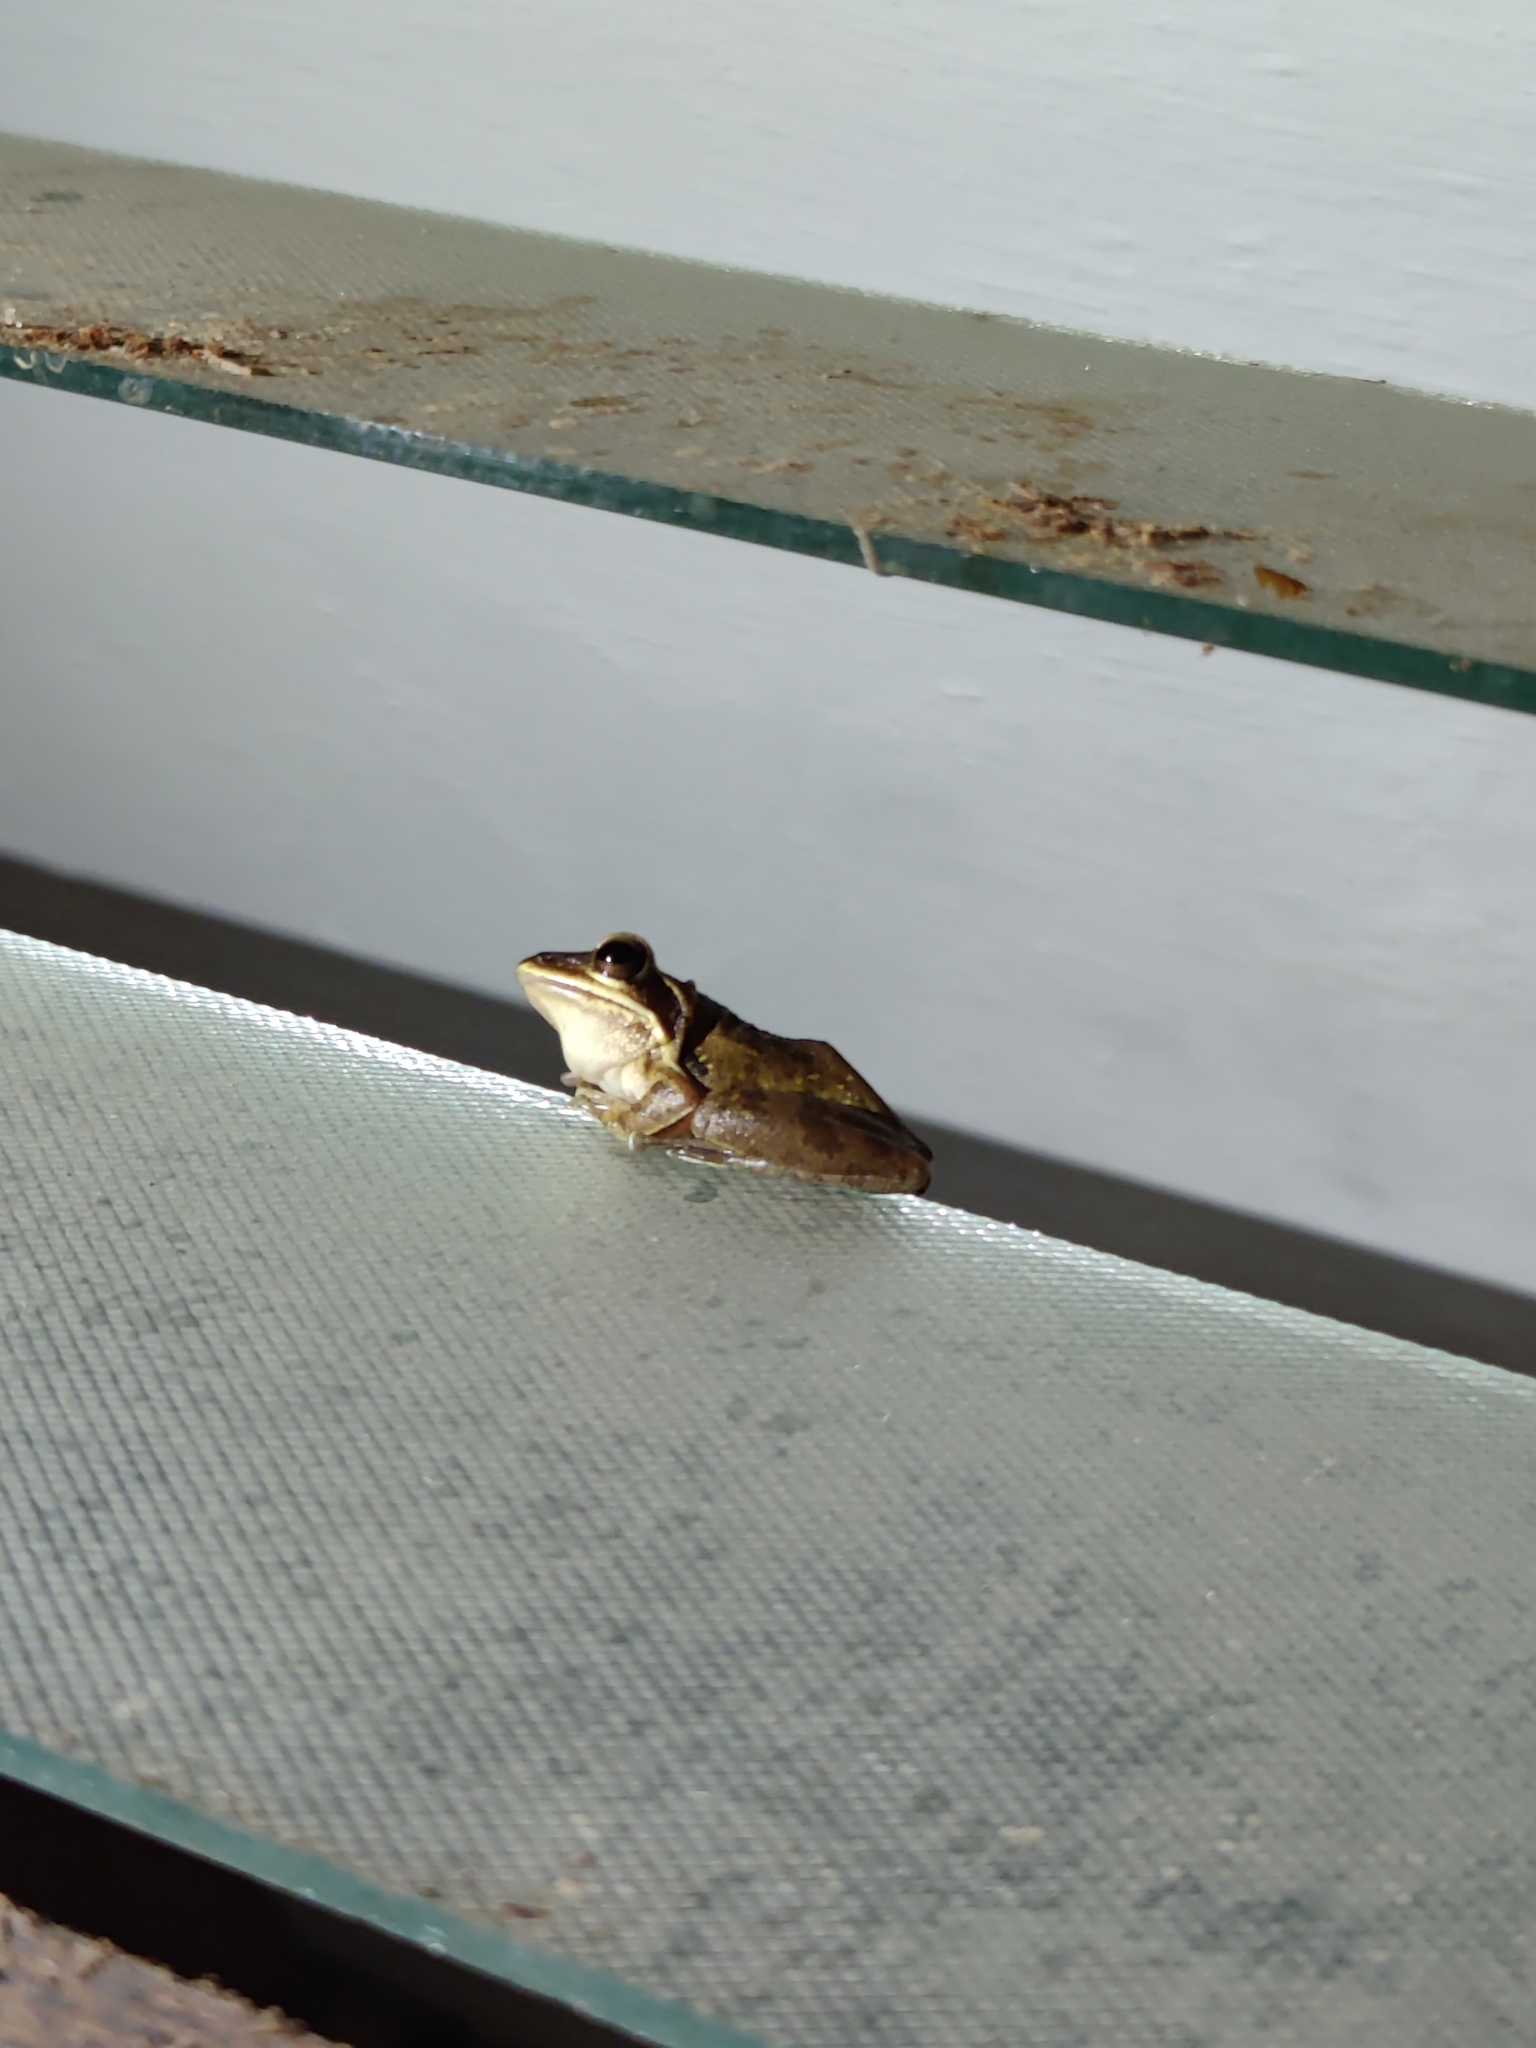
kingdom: Animalia
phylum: Chordata
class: Amphibia
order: Anura
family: Rhacophoridae
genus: Polypedates
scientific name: Polypedates maculatus
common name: Himalayan tree frog
